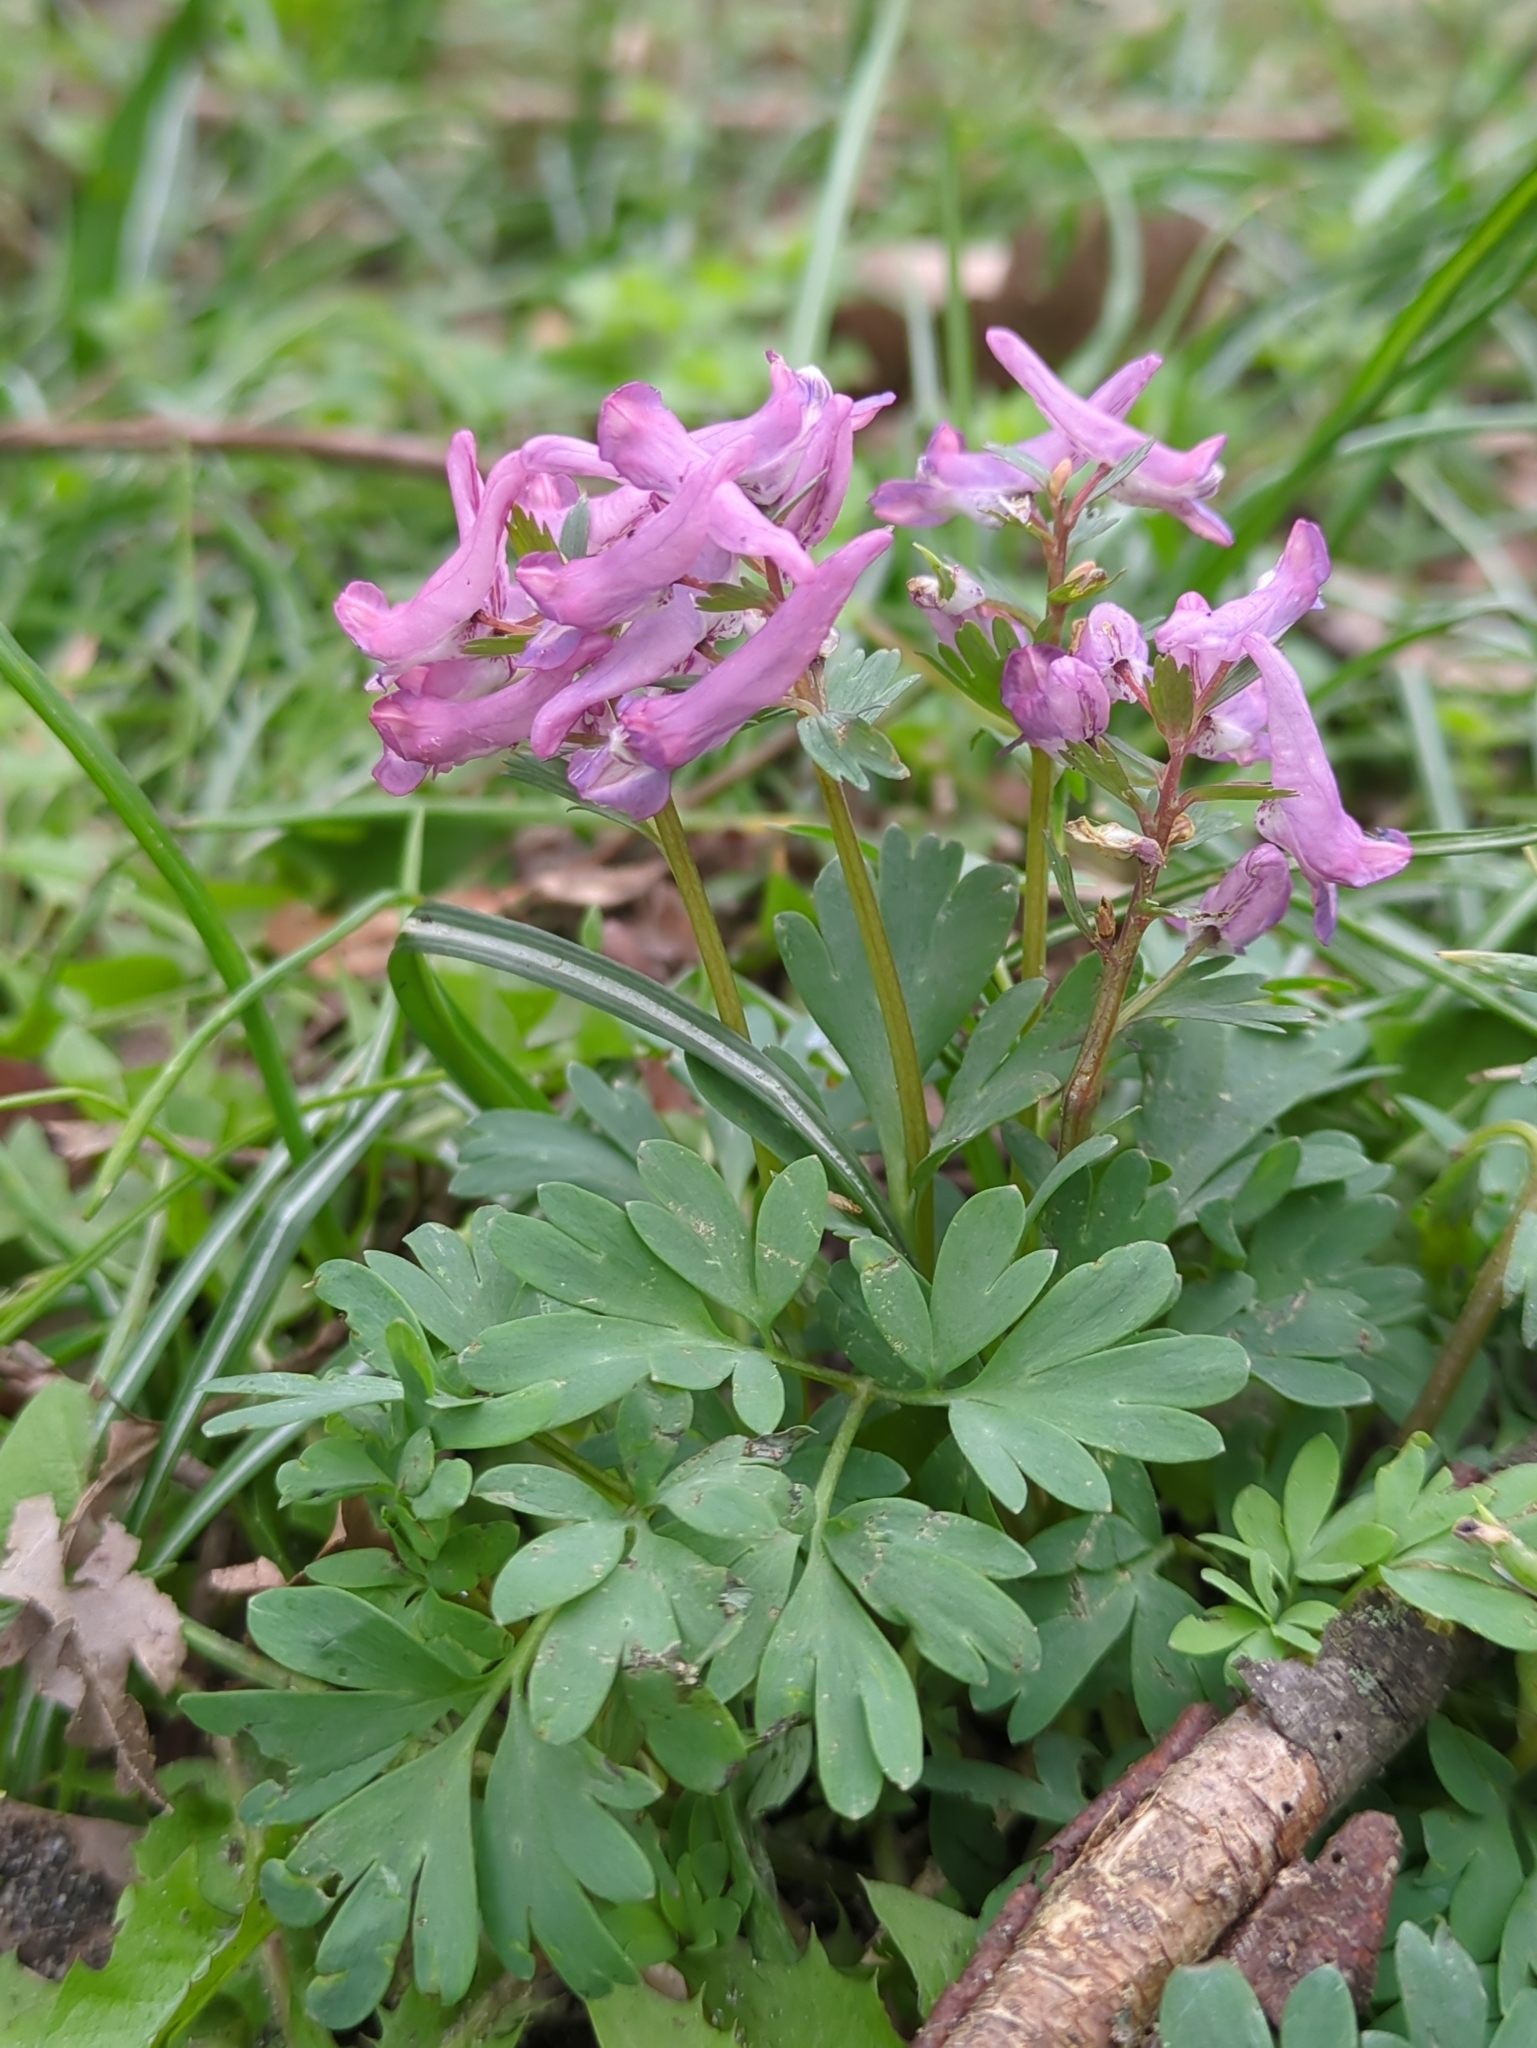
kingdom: Plantae
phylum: Tracheophyta
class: Magnoliopsida
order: Ranunculales
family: Papaveraceae
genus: Corydalis
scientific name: Corydalis solida
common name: Bird-in-a-bush
